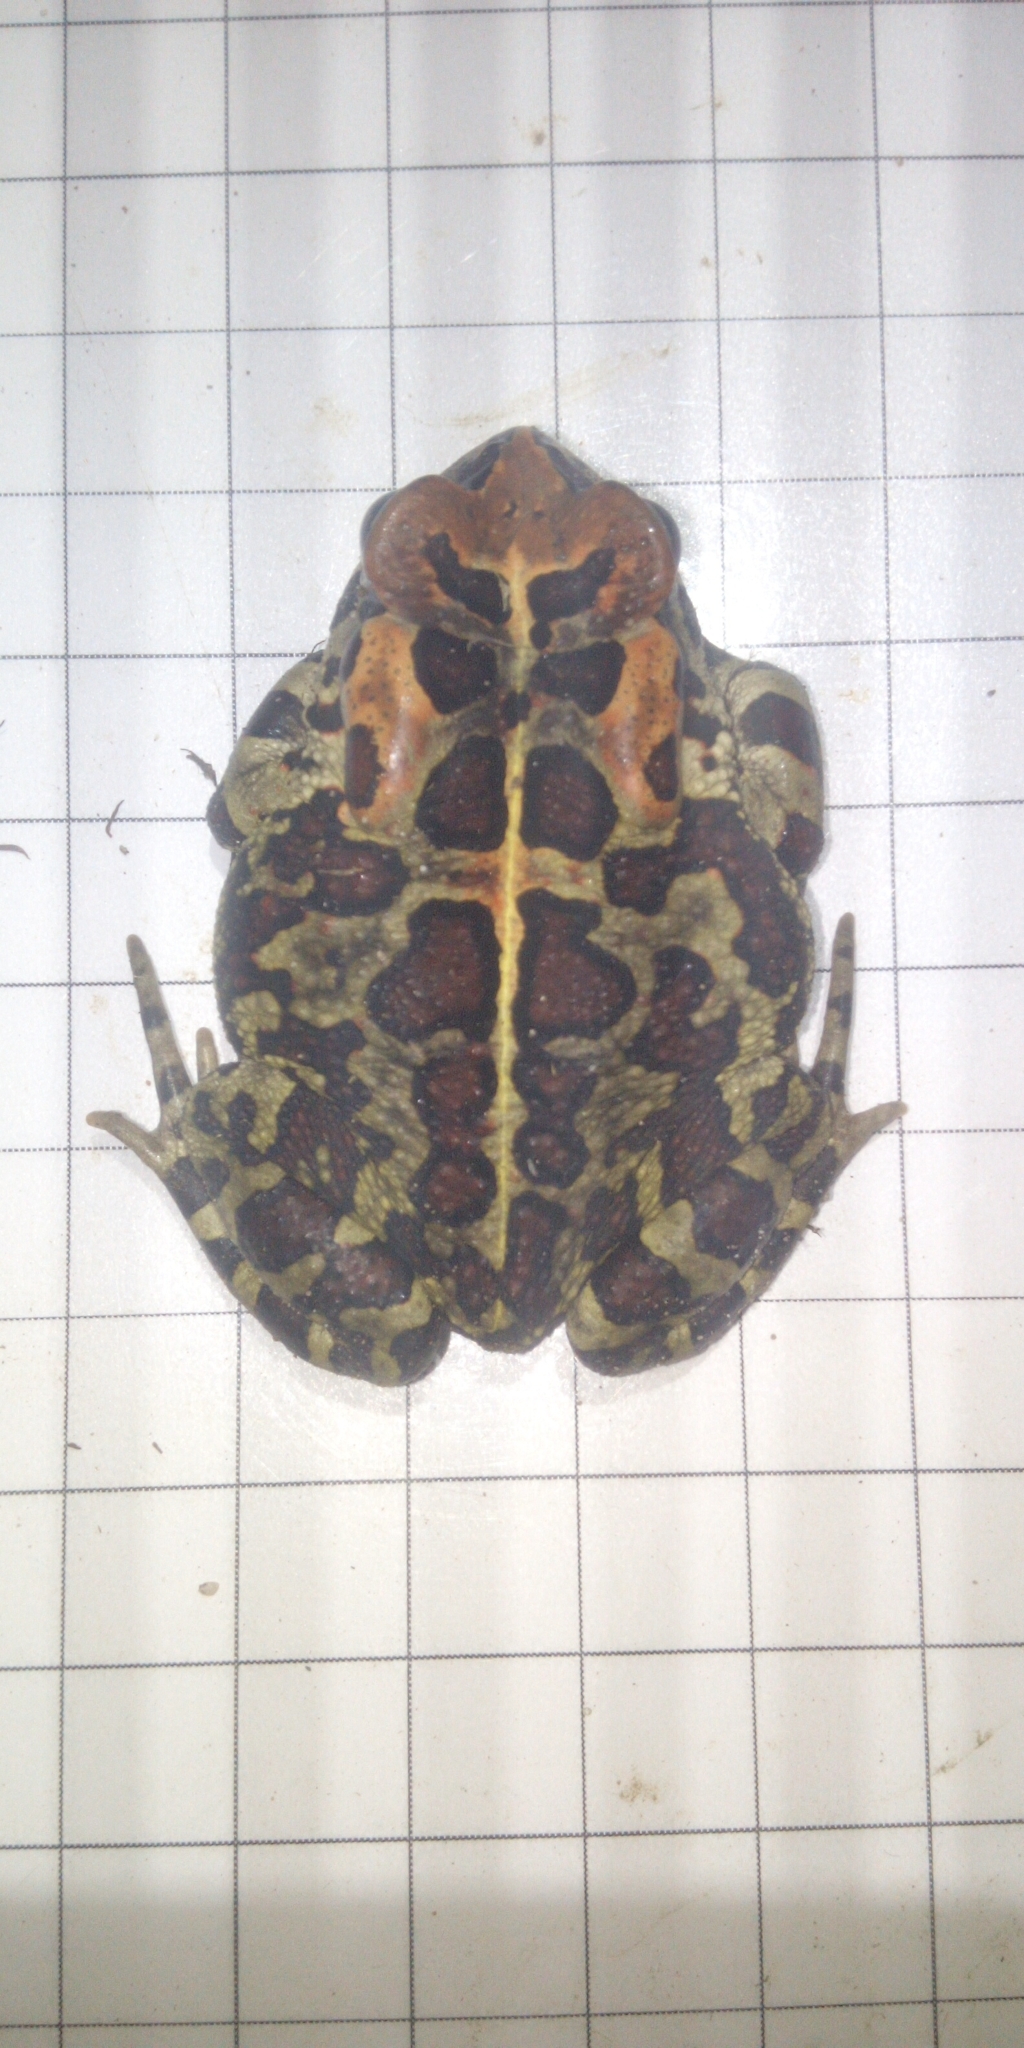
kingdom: Animalia
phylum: Chordata
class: Amphibia
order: Anura
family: Bufonidae
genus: Sclerophrys
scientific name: Sclerophrys pantherina
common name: Panther toad
